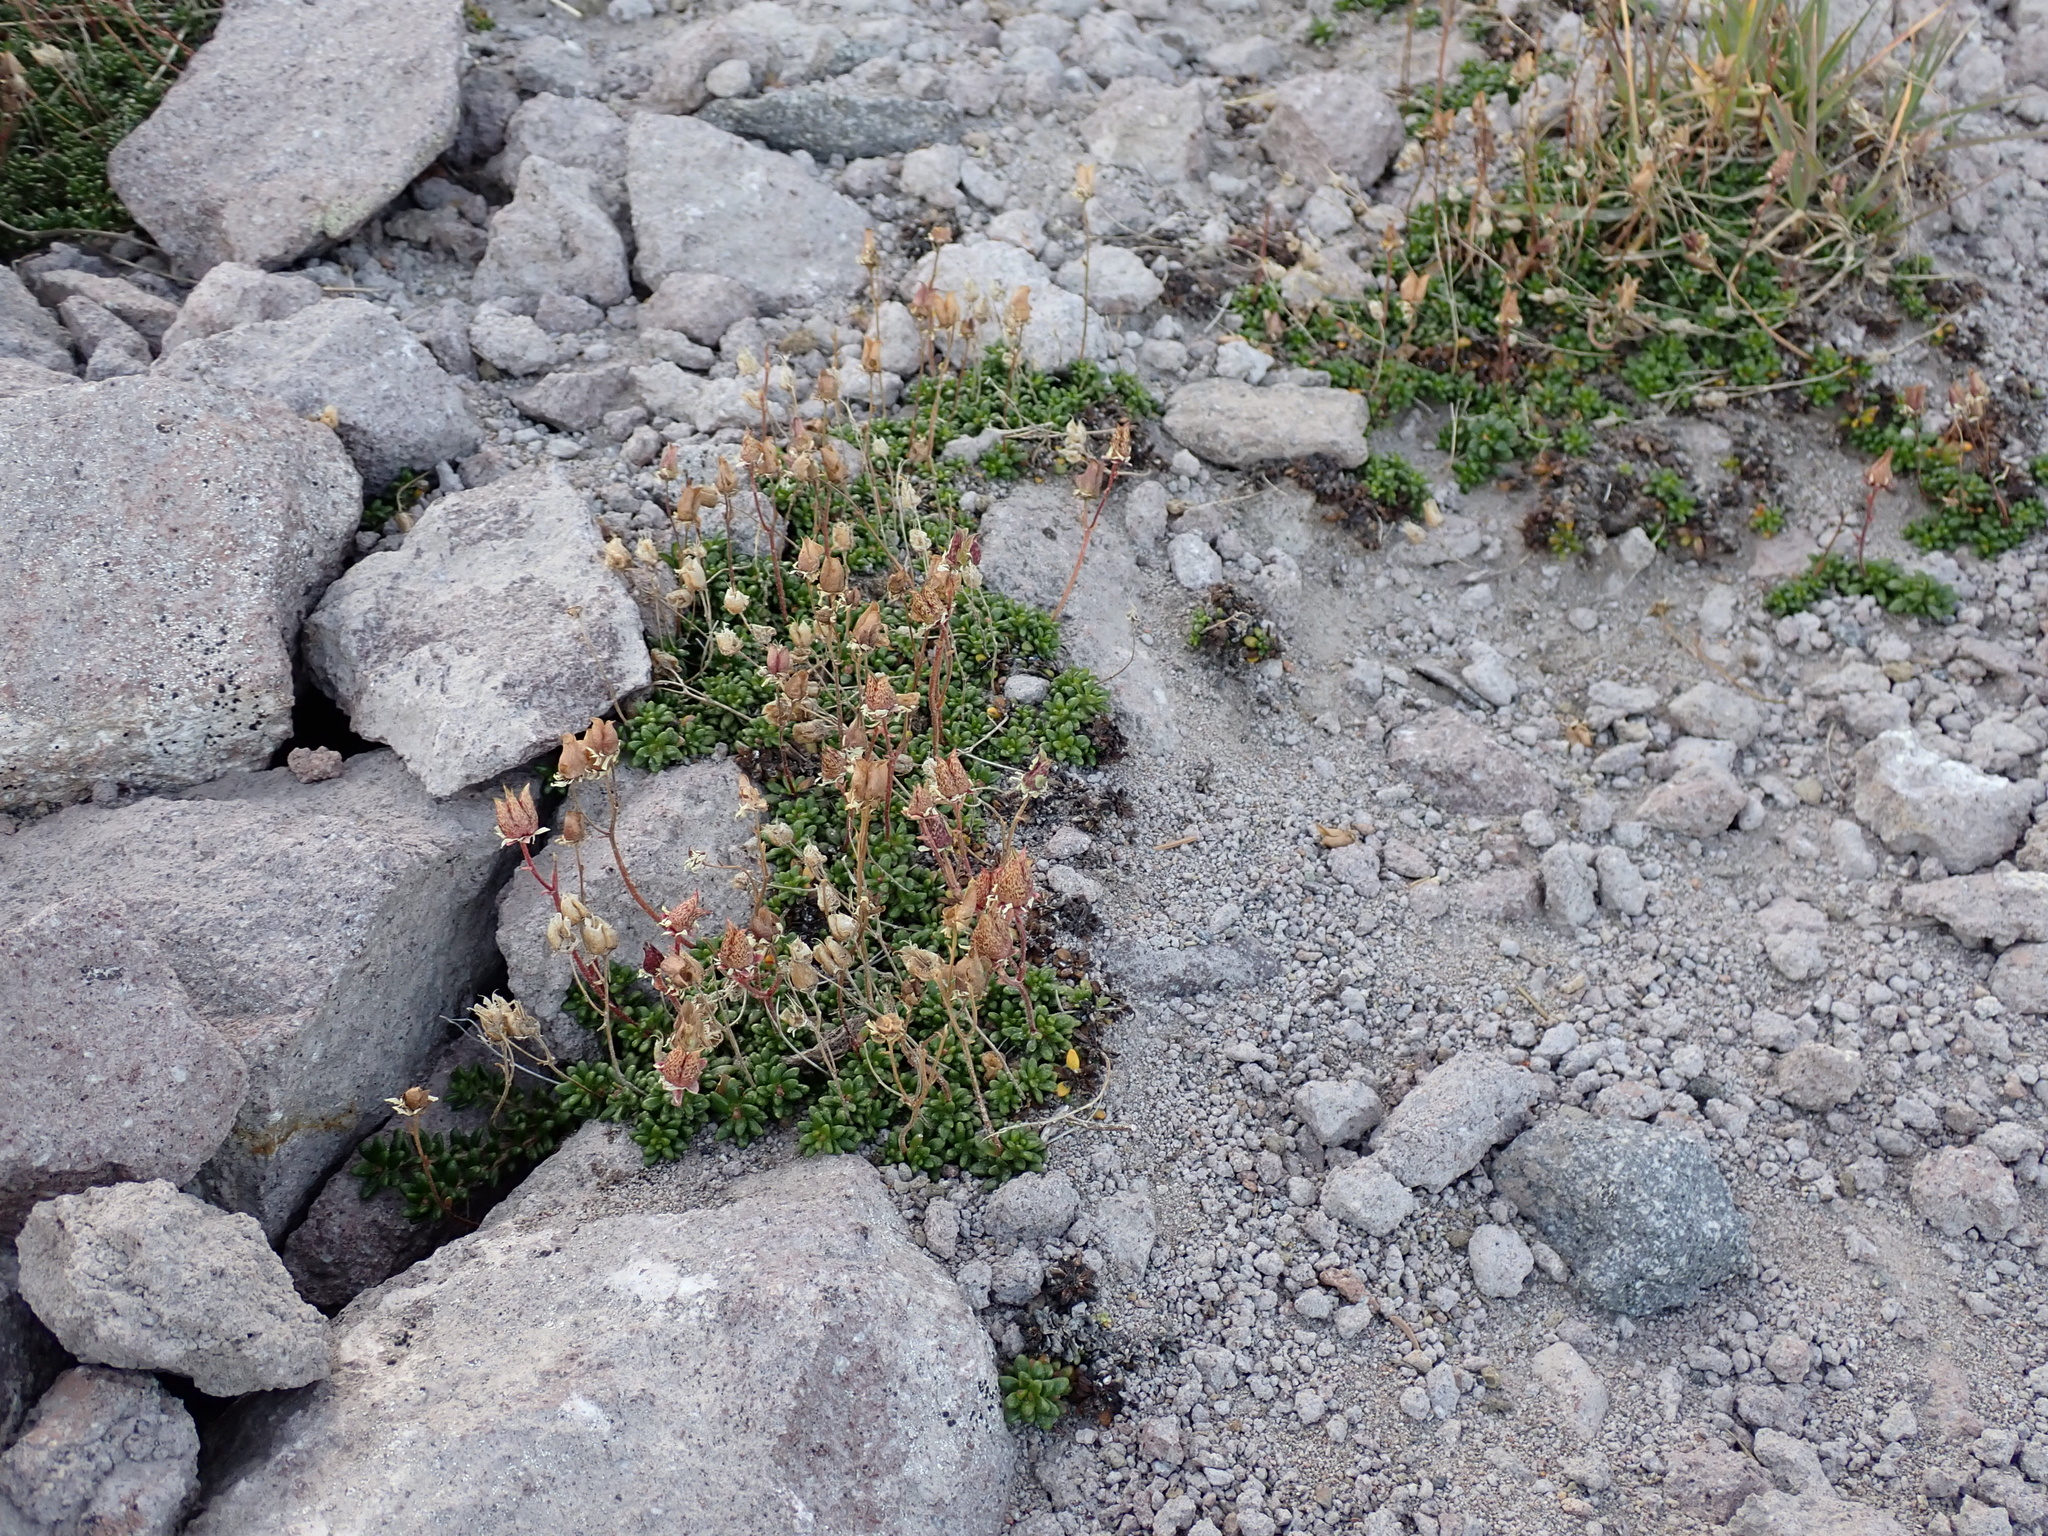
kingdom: Plantae
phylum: Tracheophyta
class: Magnoliopsida
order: Saxifragales
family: Saxifragaceae
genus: Micranthes
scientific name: Micranthes tolmiei
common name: Tolmie's saxifrage
